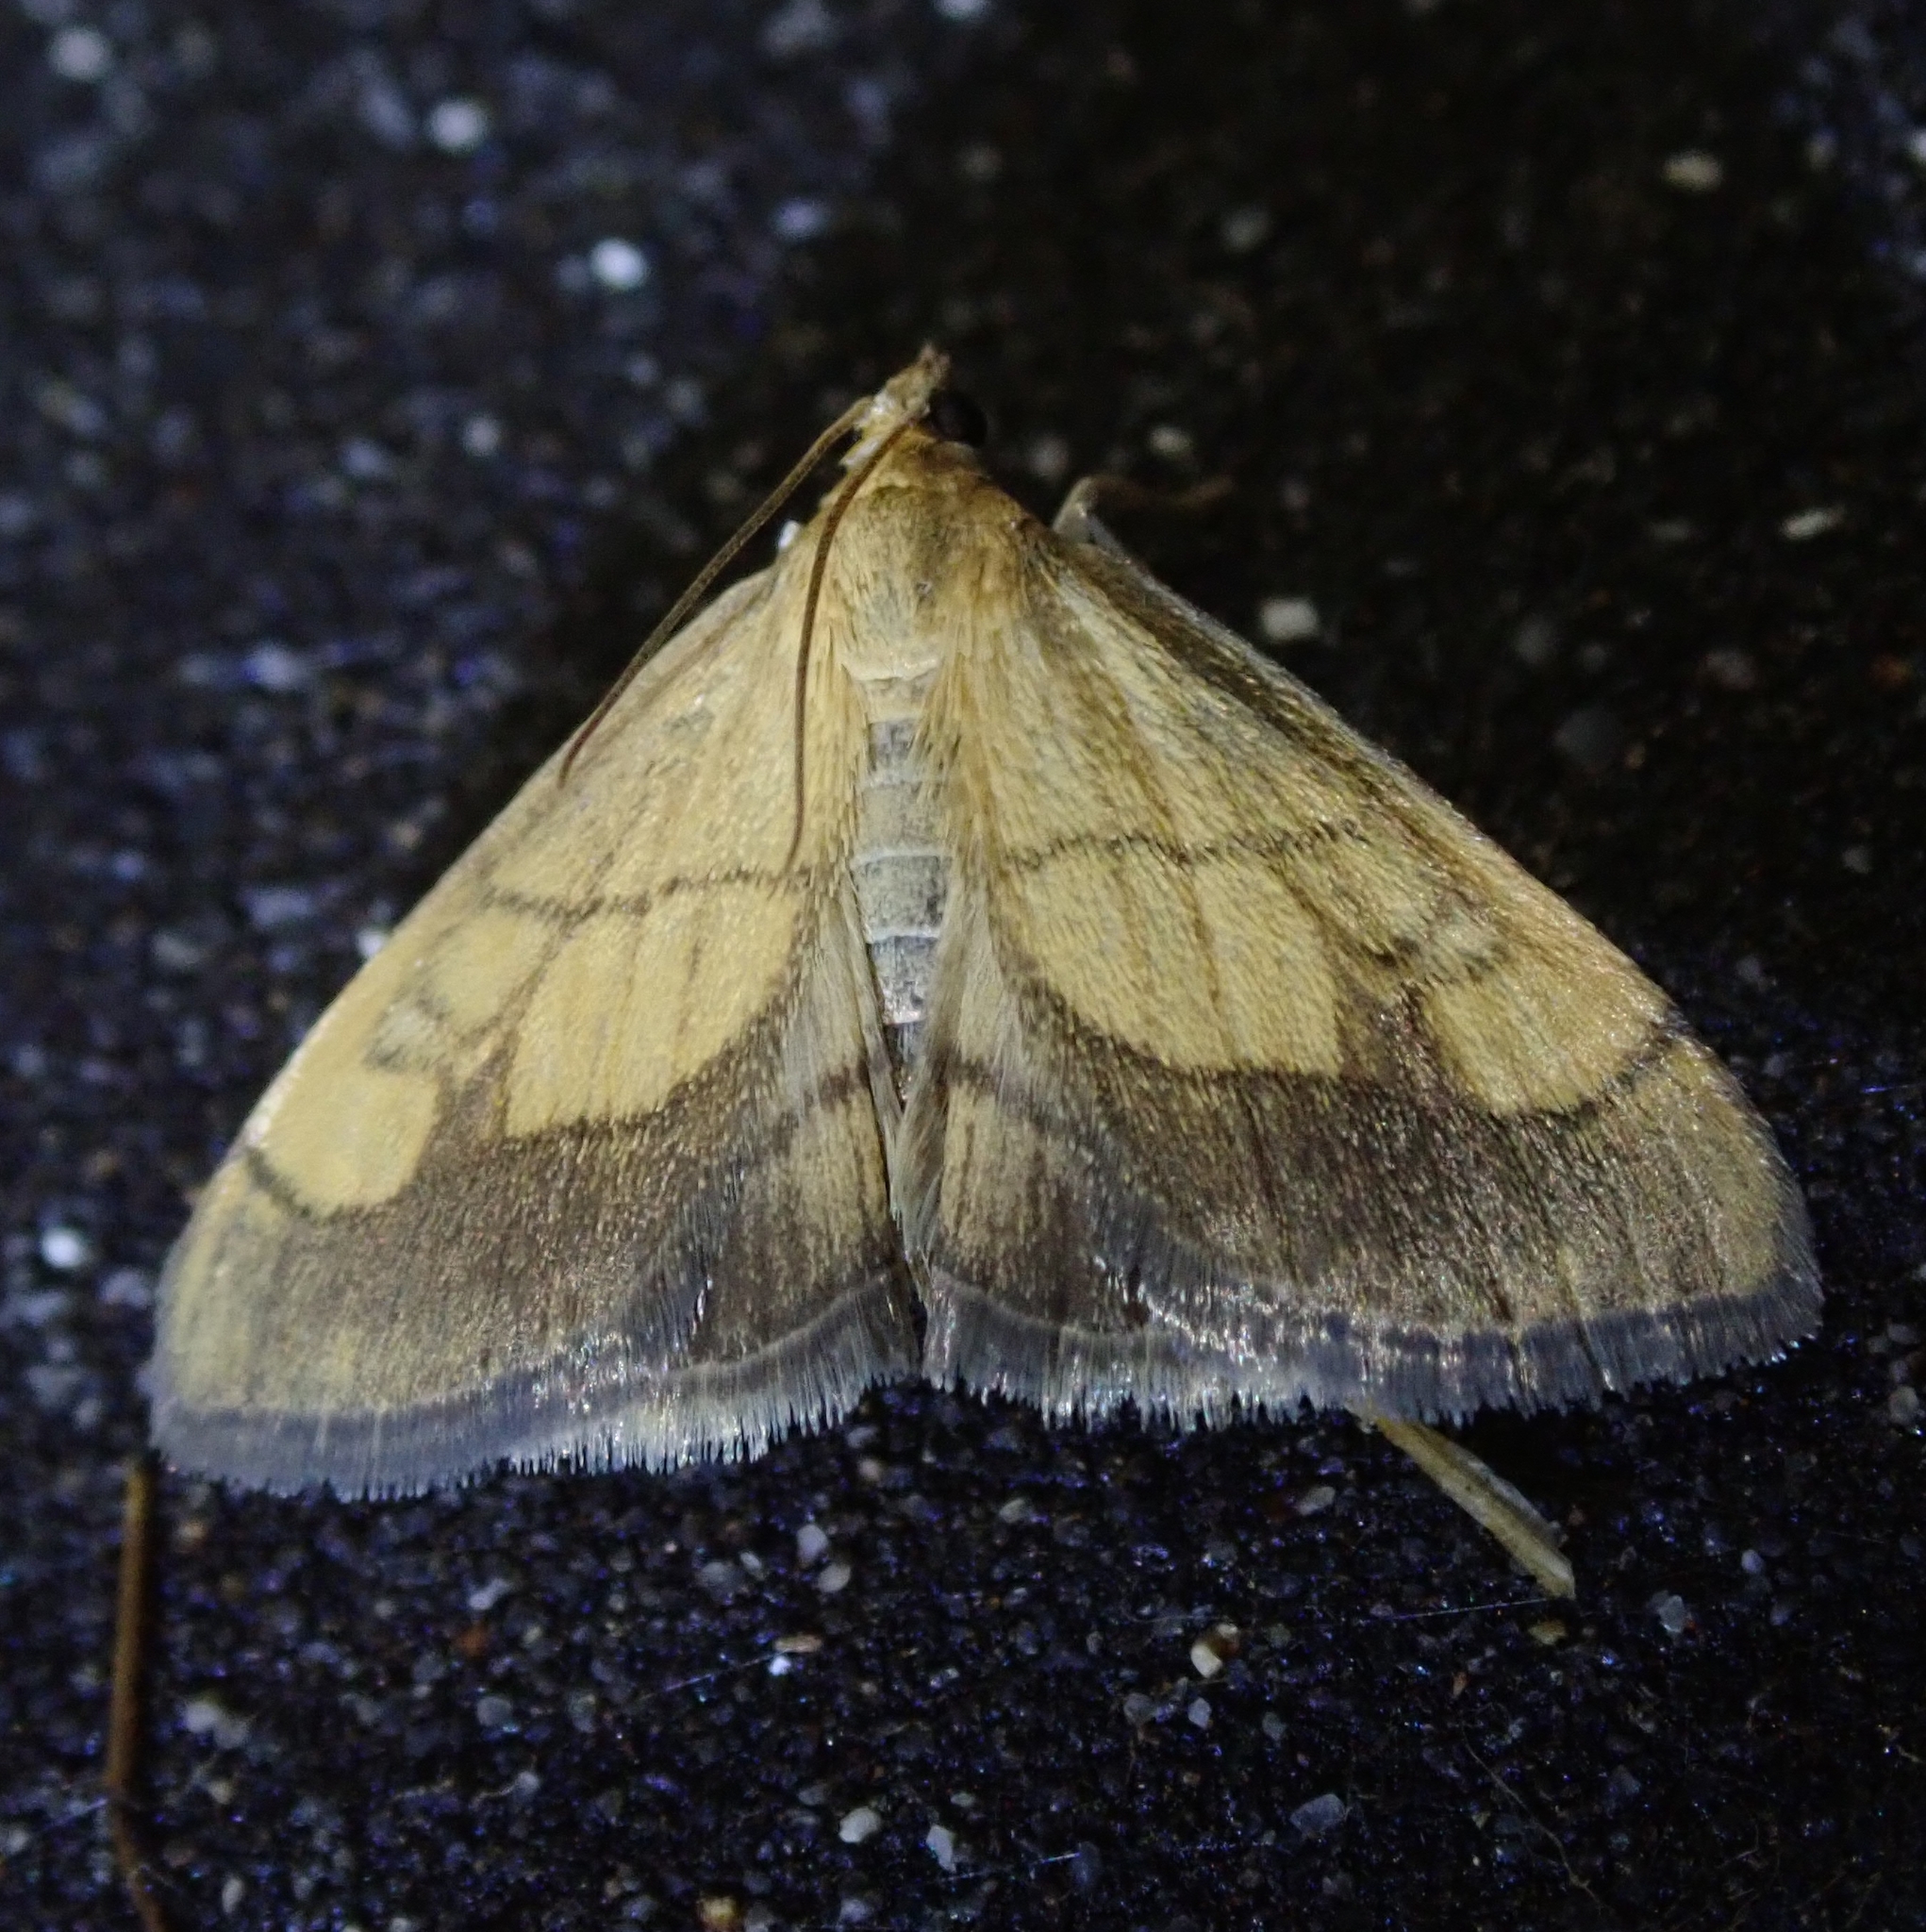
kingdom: Animalia
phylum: Arthropoda
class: Insecta
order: Lepidoptera
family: Crambidae
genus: Evergestis
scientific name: Evergestis limbata
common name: Dark bordered pearl
